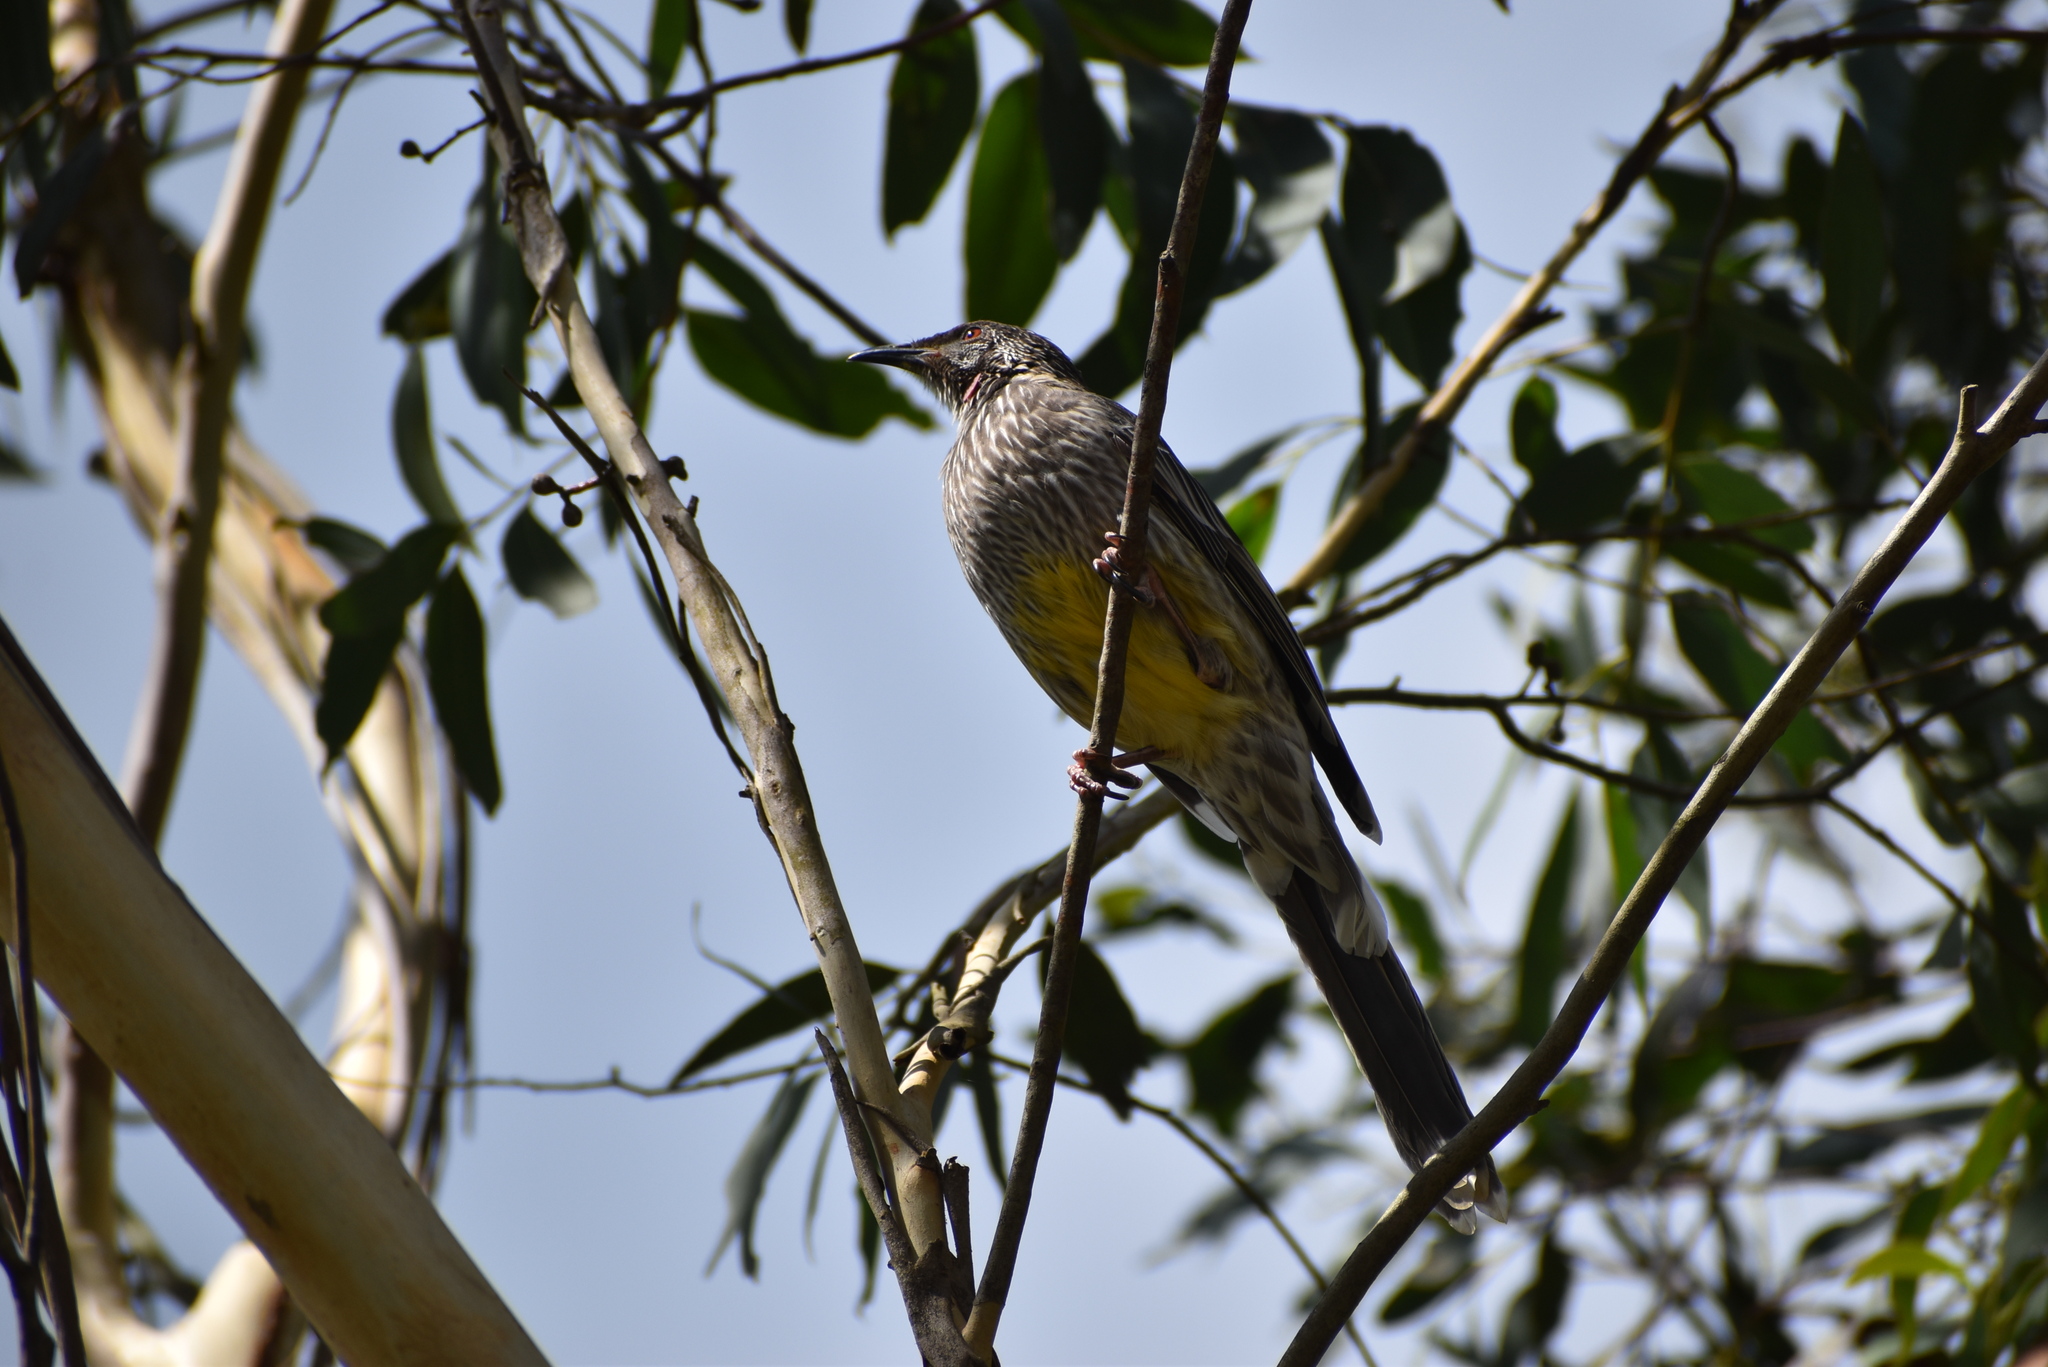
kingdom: Animalia
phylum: Chordata
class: Aves
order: Passeriformes
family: Meliphagidae
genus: Anthochaera
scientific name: Anthochaera carunculata
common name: Red wattlebird
